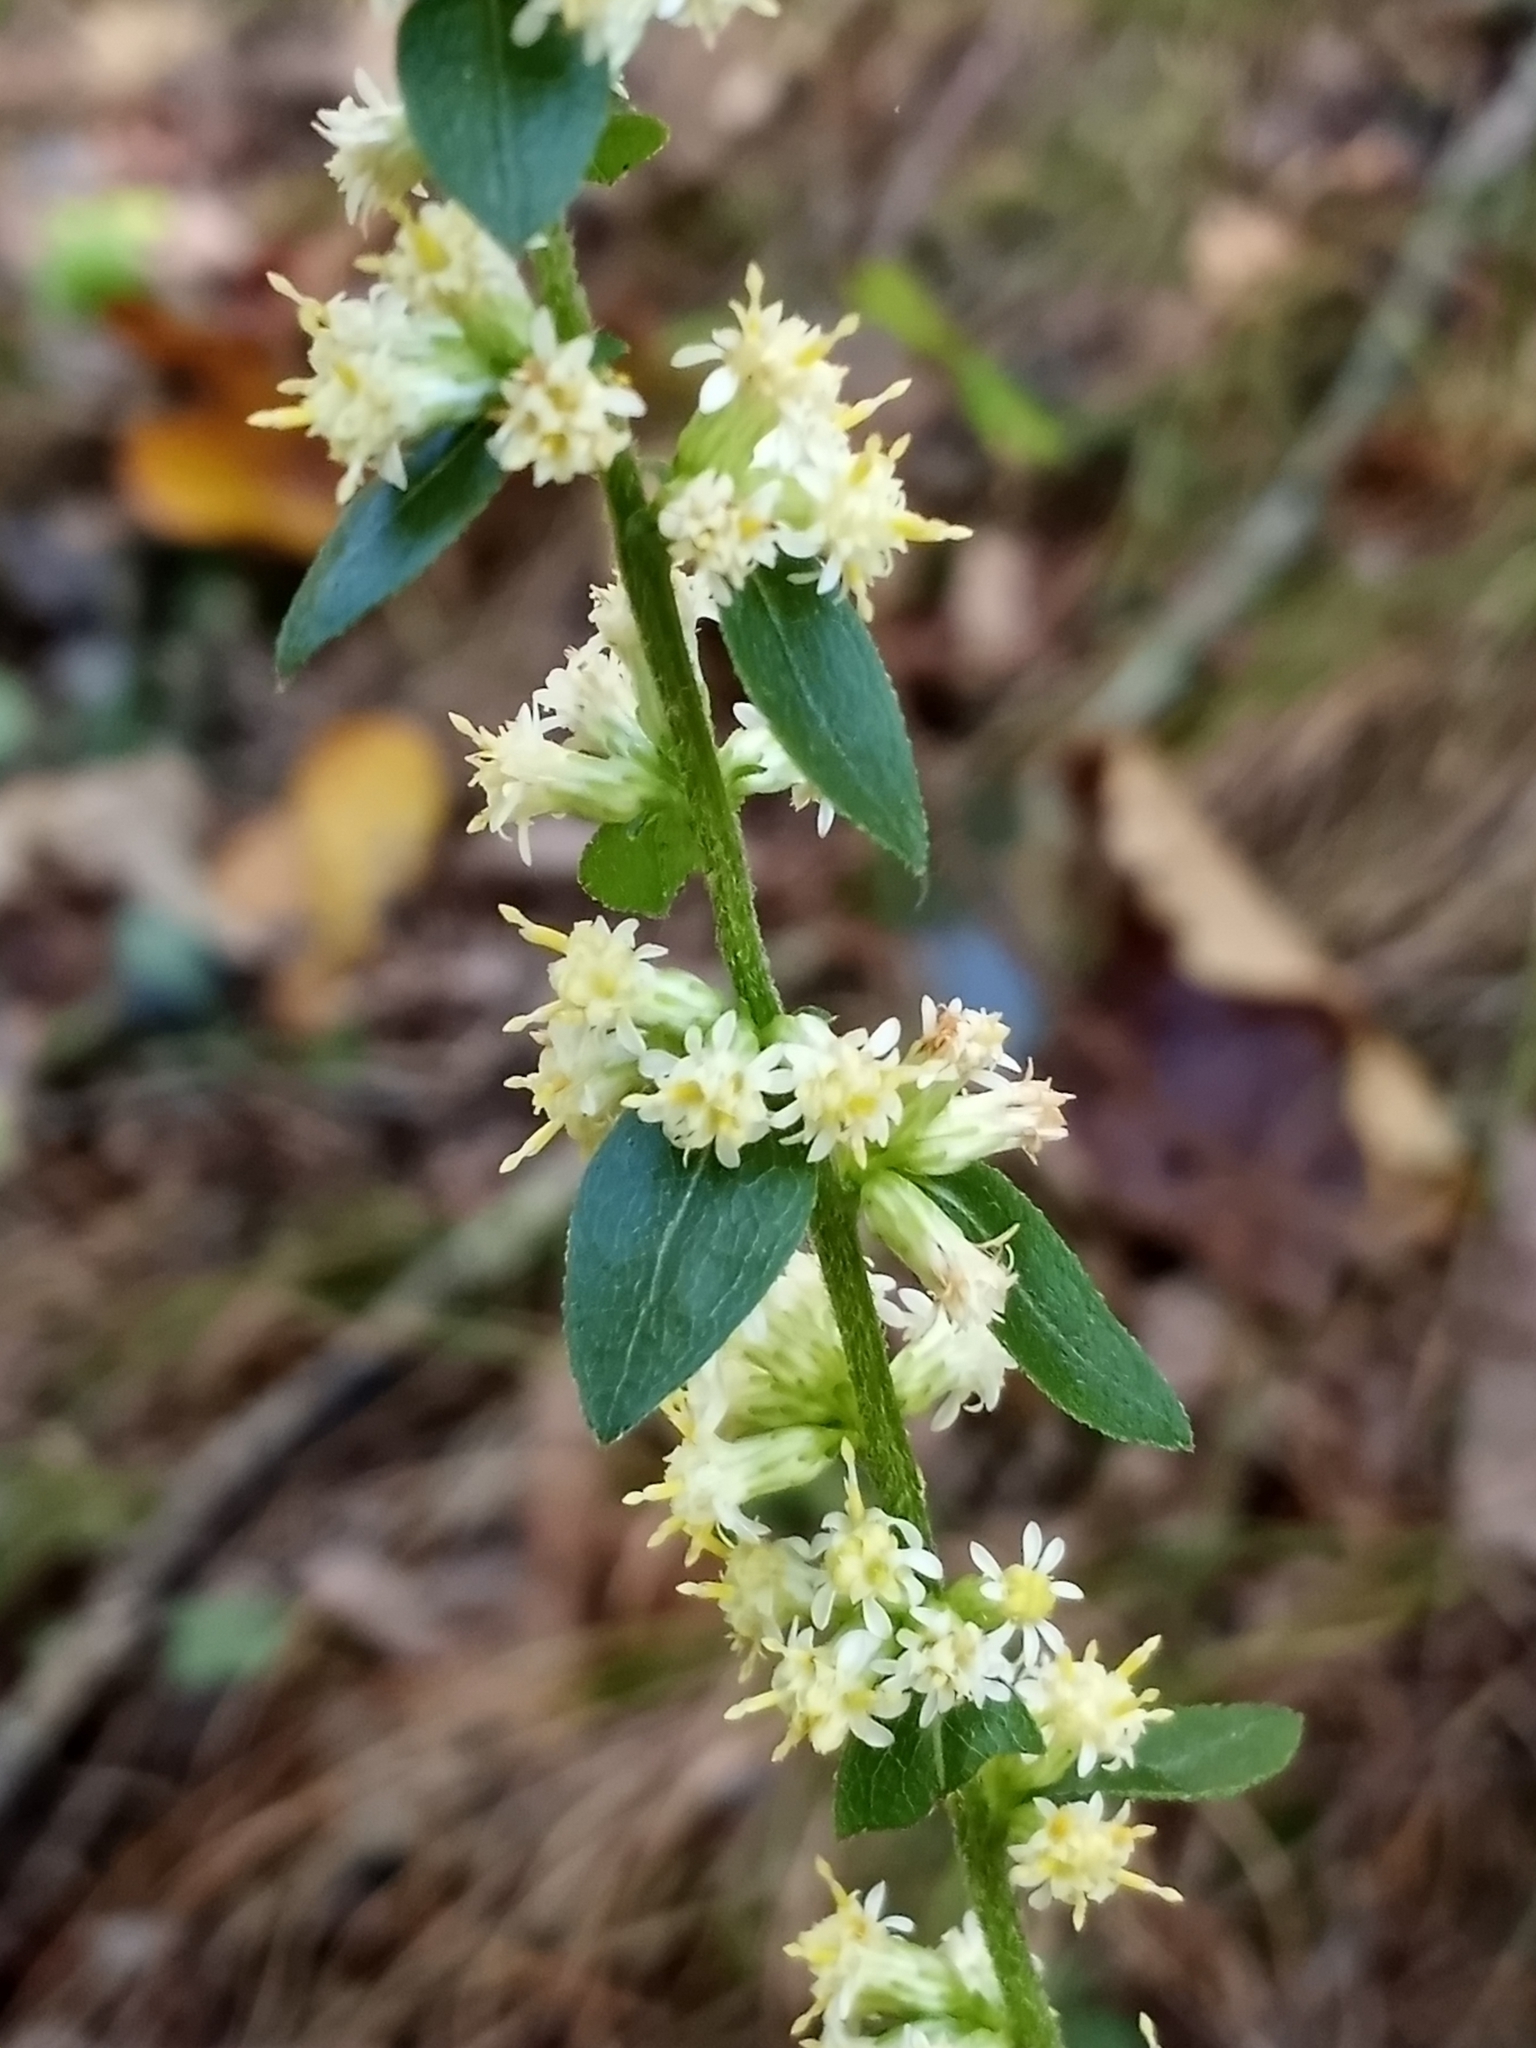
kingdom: Plantae
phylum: Tracheophyta
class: Magnoliopsida
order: Asterales
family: Asteraceae
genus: Solidago
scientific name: Solidago bicolor
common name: Silverrod
